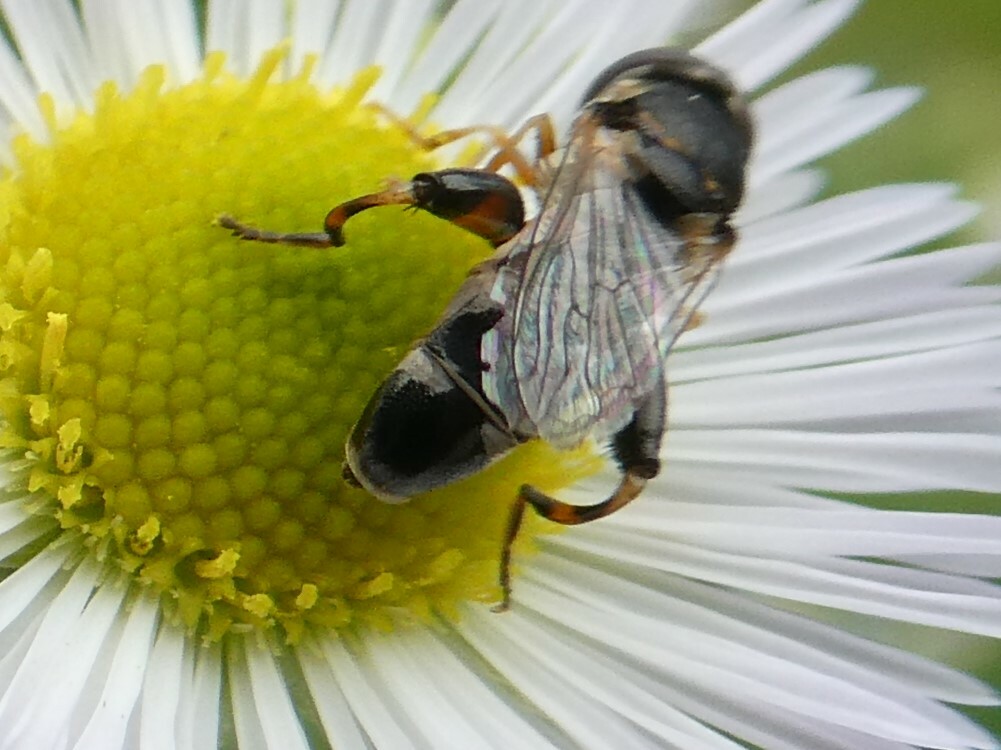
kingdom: Animalia
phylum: Arthropoda
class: Insecta
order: Diptera
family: Syrphidae
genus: Syritta
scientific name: Syritta pipiens
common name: Hover fly
